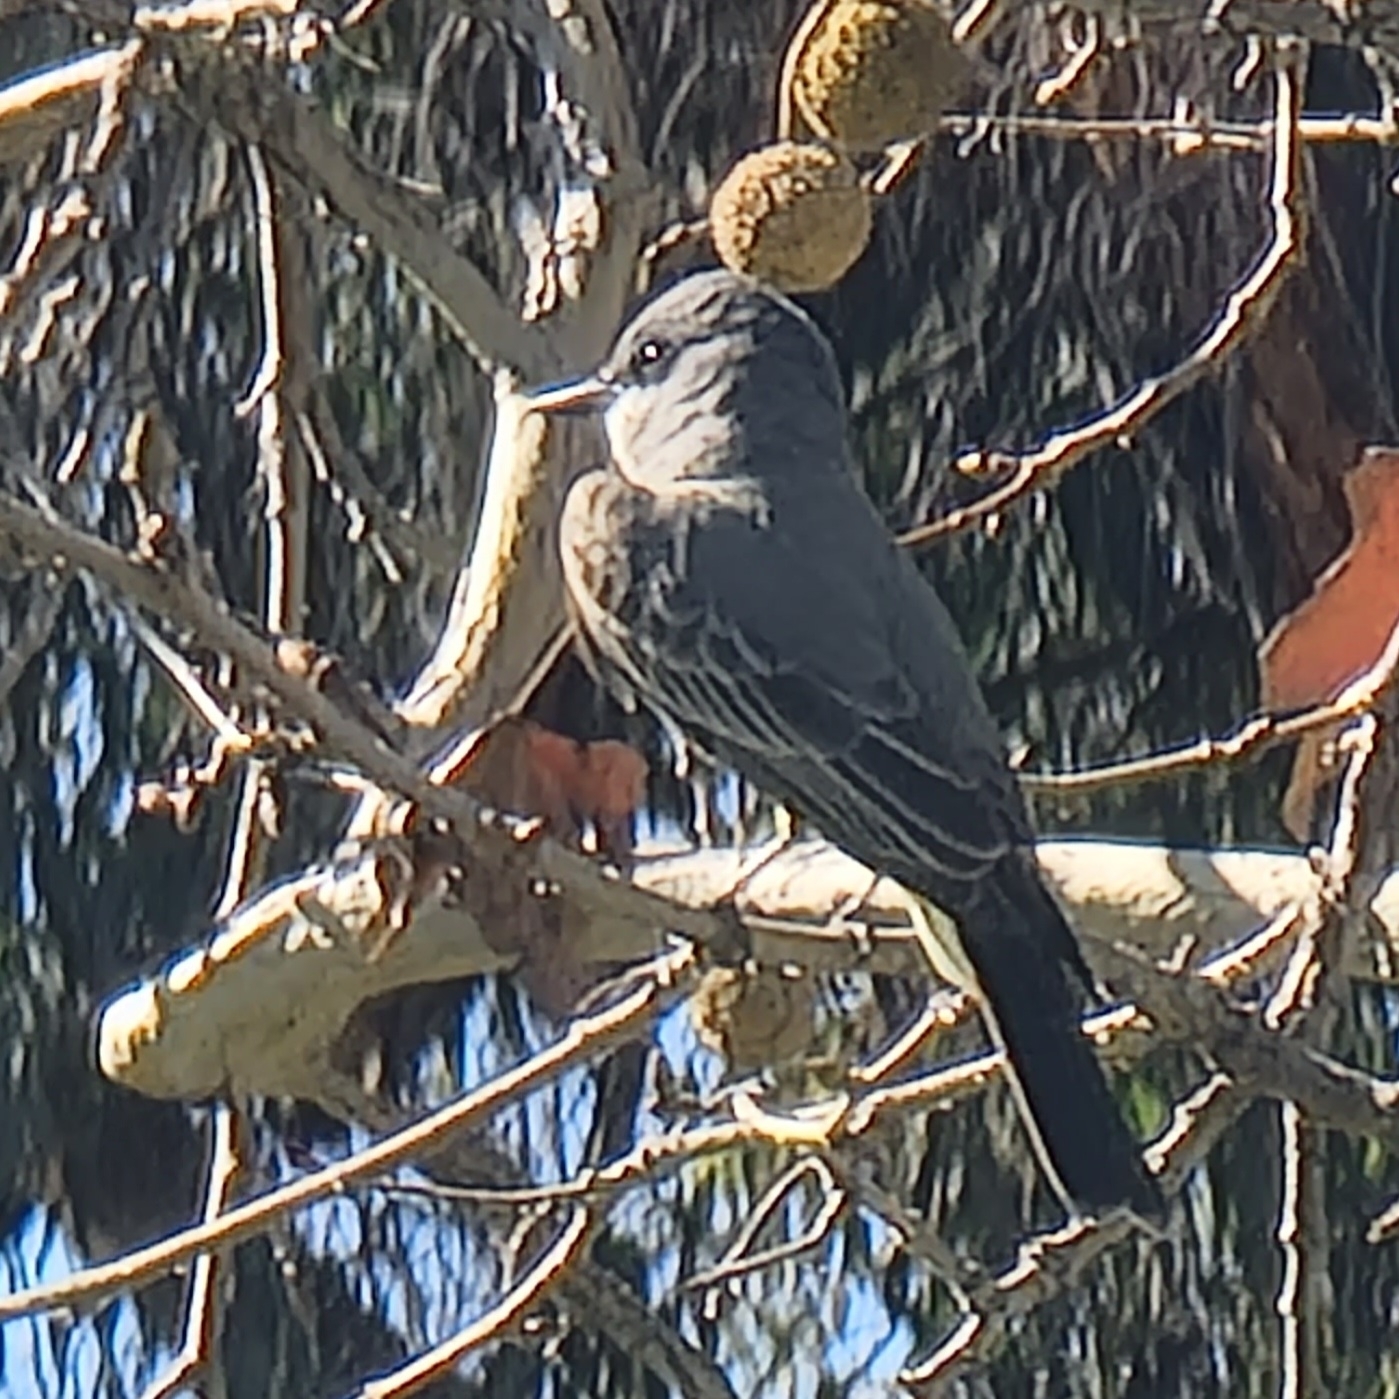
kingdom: Animalia
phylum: Chordata
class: Aves
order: Passeriformes
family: Tyrannidae
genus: Tyrannus
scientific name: Tyrannus vociferans
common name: Cassin's kingbird
